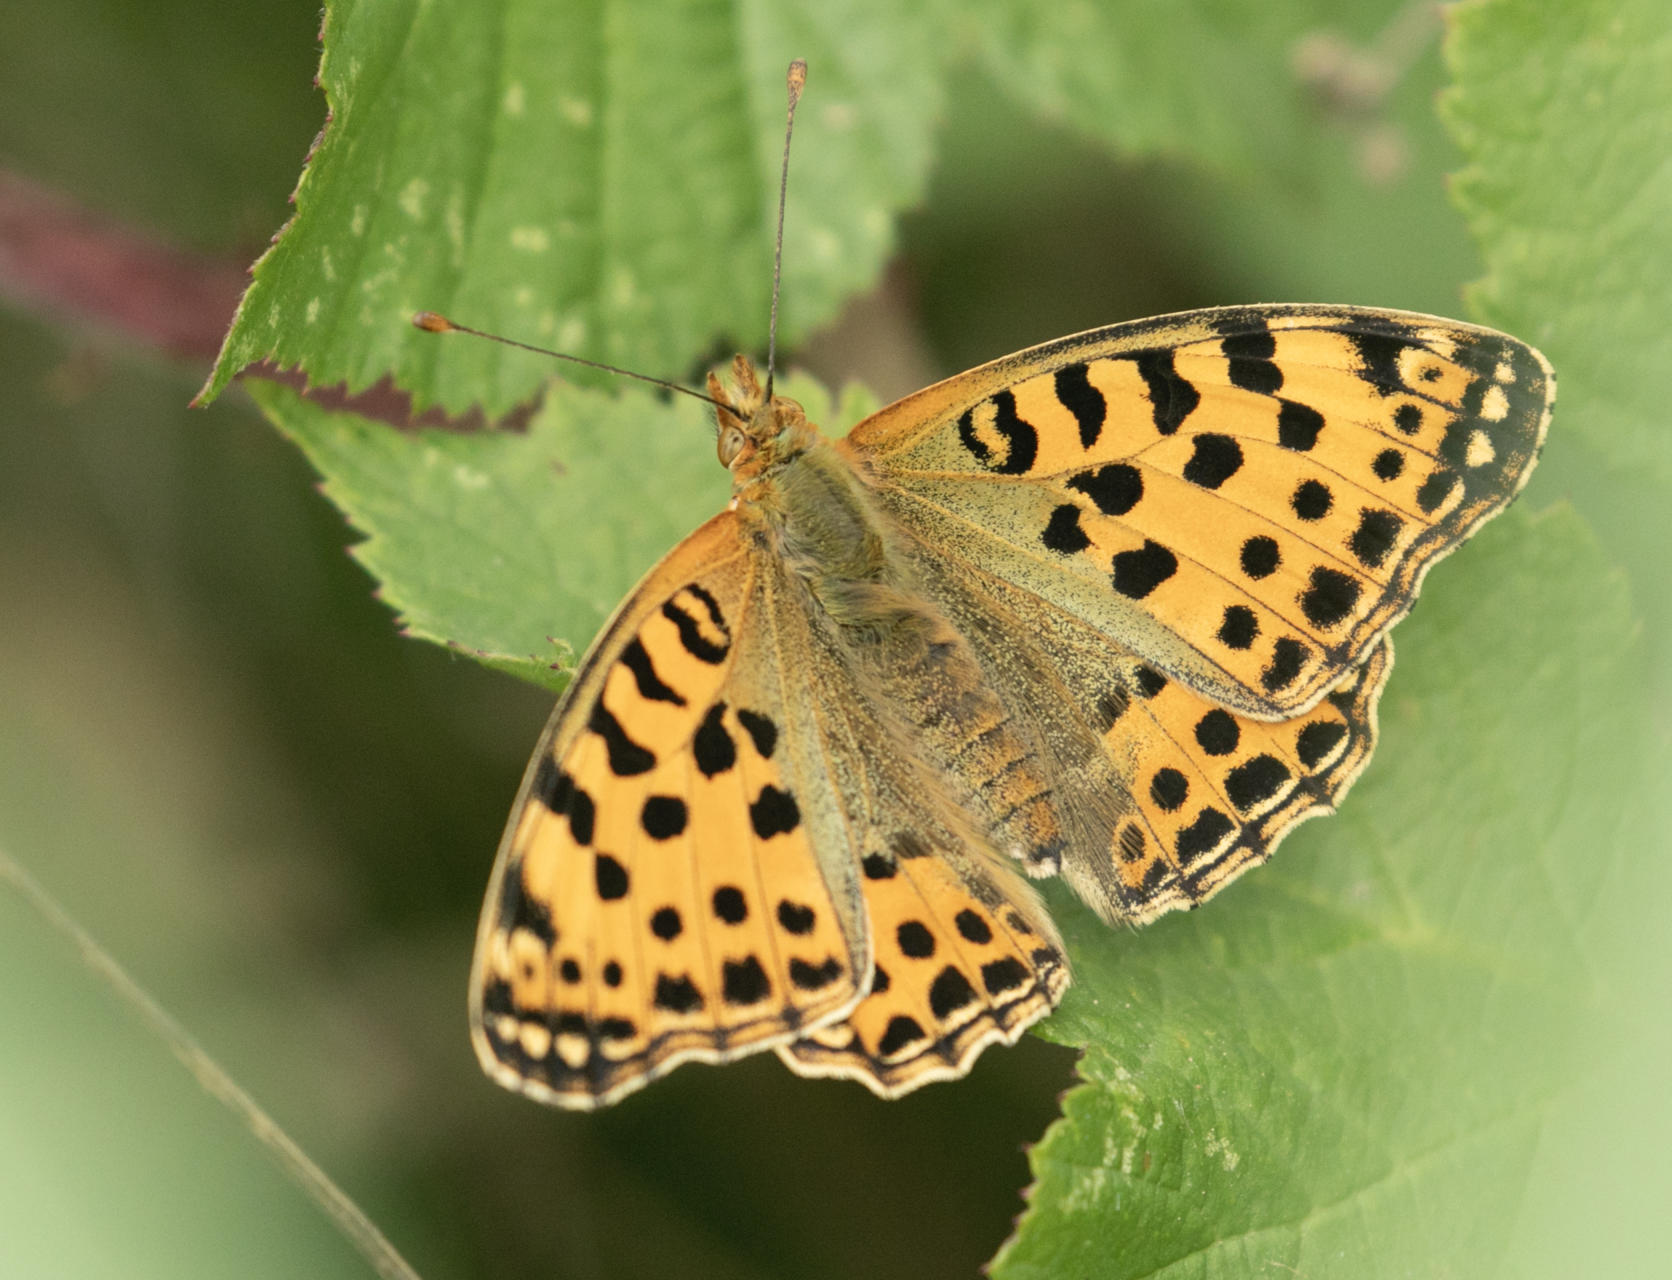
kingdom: Animalia
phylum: Arthropoda
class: Insecta
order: Lepidoptera
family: Nymphalidae
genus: Issoria
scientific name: Issoria lathonia
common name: Queen of spain fritillary
